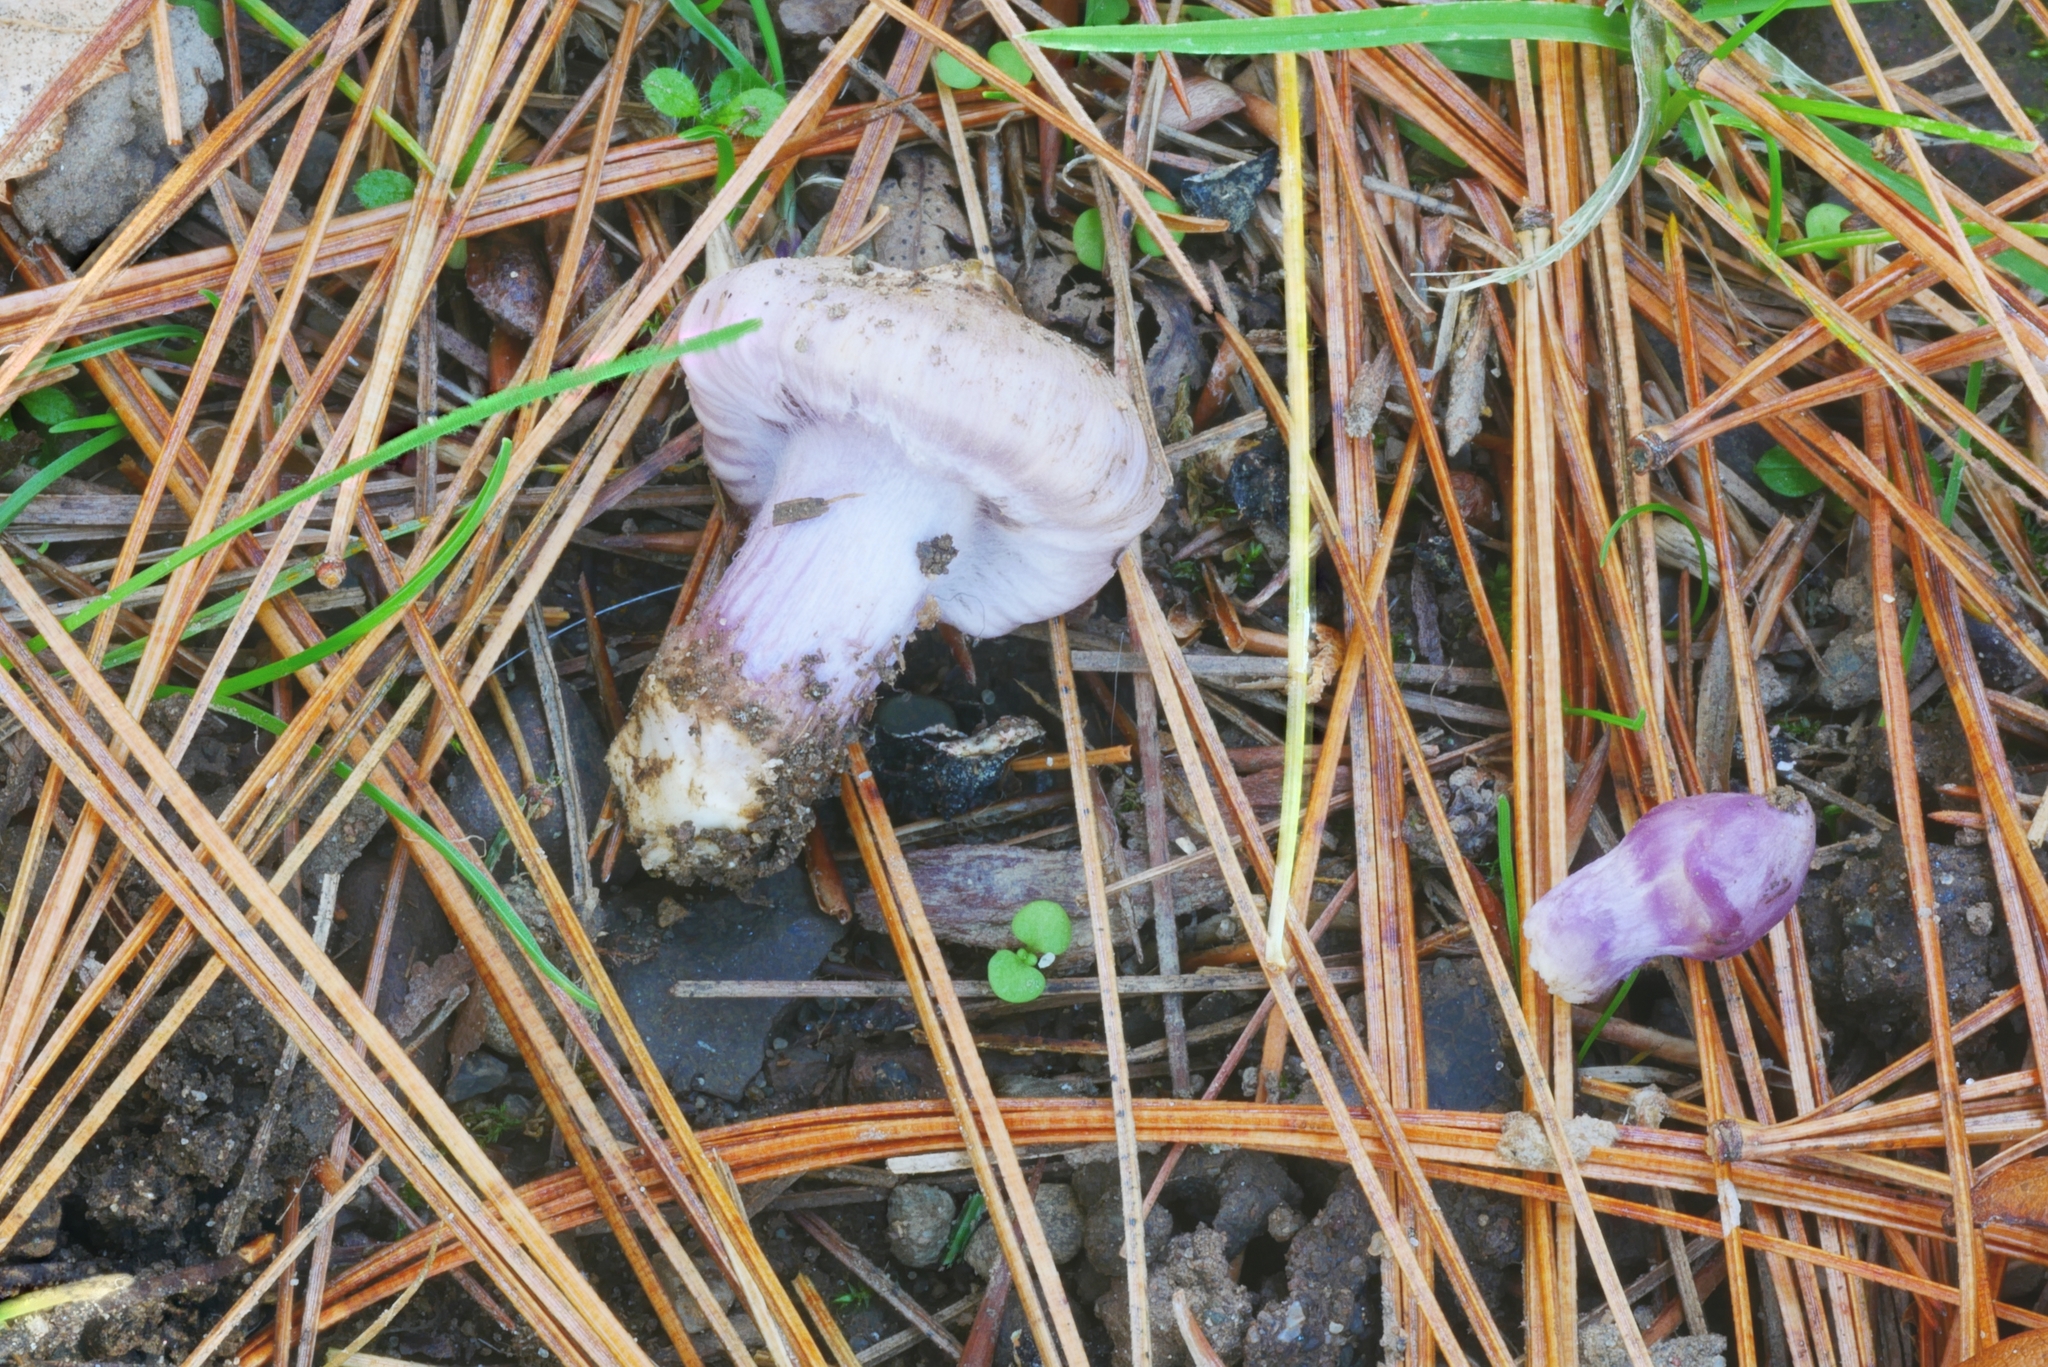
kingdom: Fungi
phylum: Basidiomycota
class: Agaricomycetes
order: Agaricales
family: Inocybaceae
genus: Inocybe
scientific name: Inocybe pallidicremea
